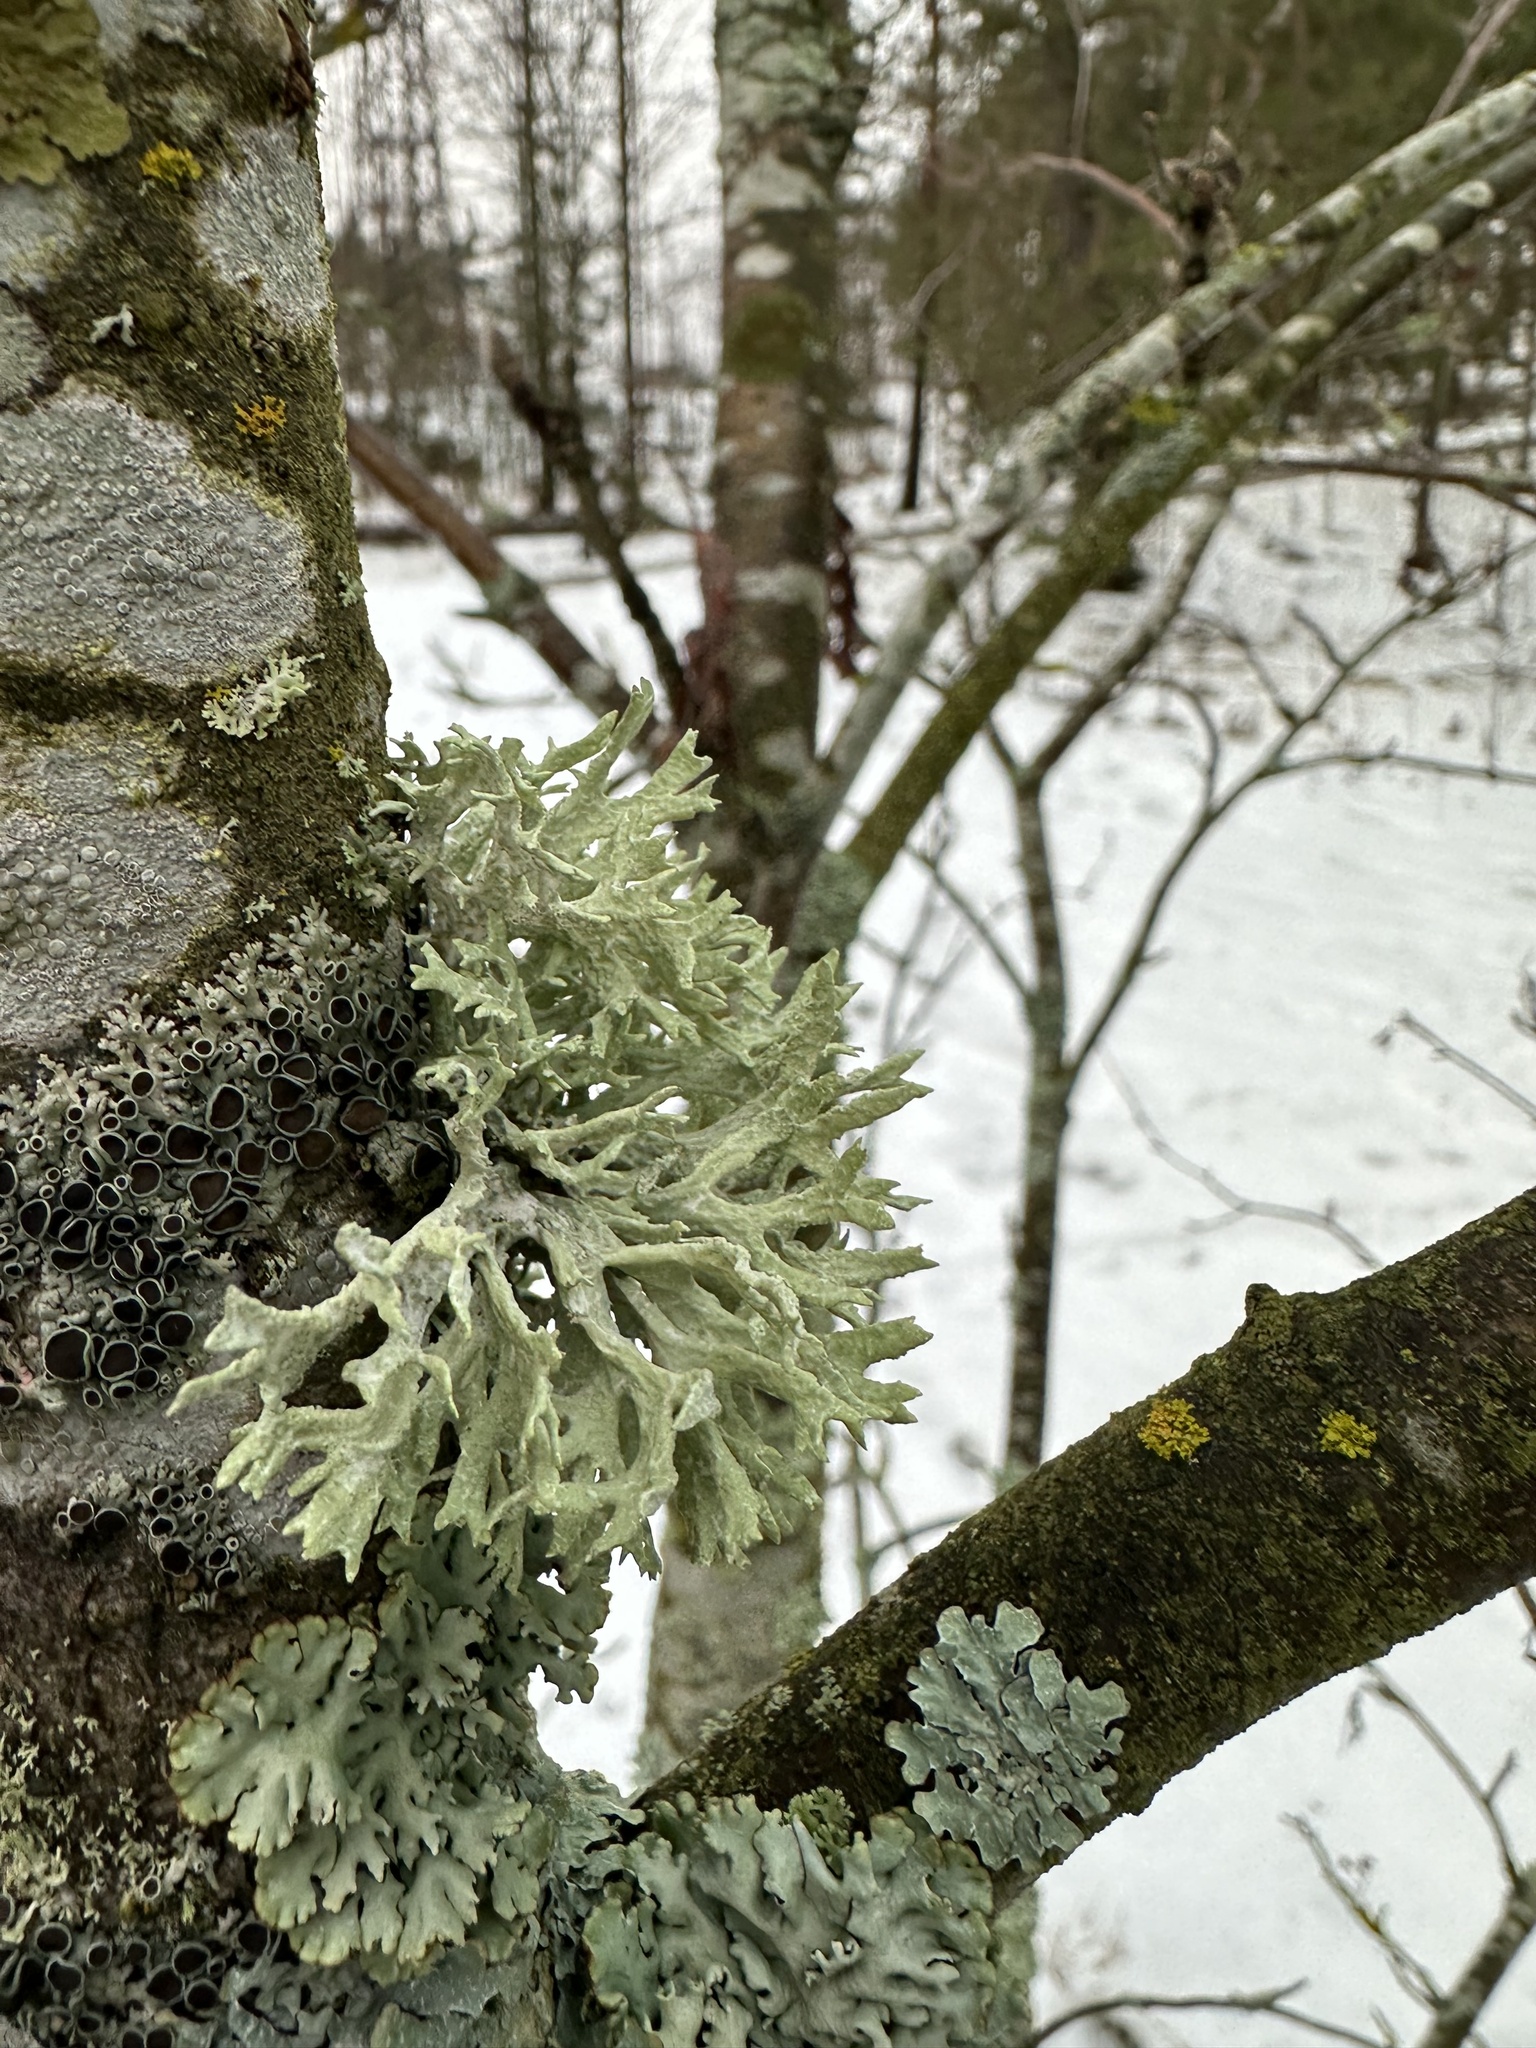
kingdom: Fungi
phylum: Ascomycota
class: Lecanoromycetes
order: Lecanorales
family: Parmeliaceae
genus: Evernia
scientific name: Evernia prunastri
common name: Oak moss
